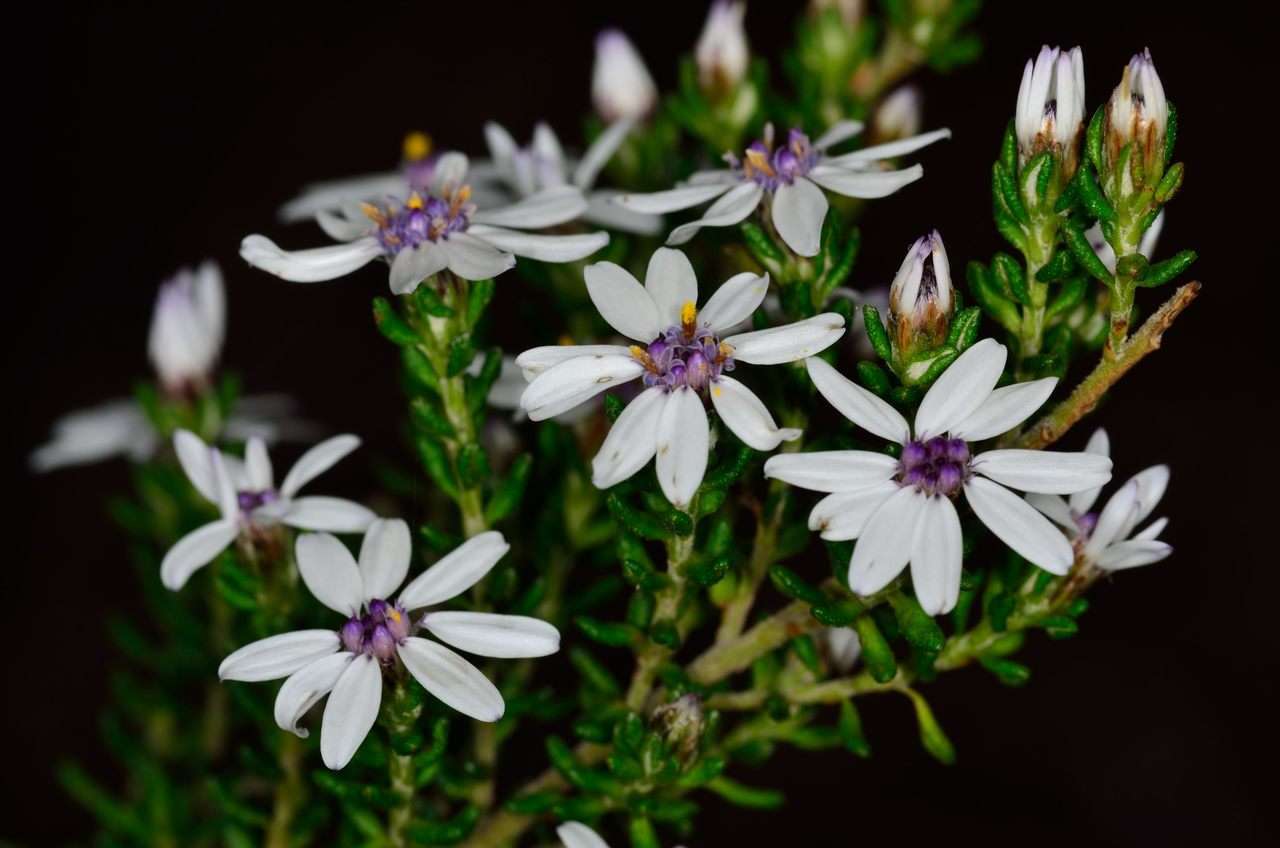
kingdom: Plantae
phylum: Tracheophyta
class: Magnoliopsida
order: Asterales
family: Asteraceae
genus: Olearia
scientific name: Olearia minor
